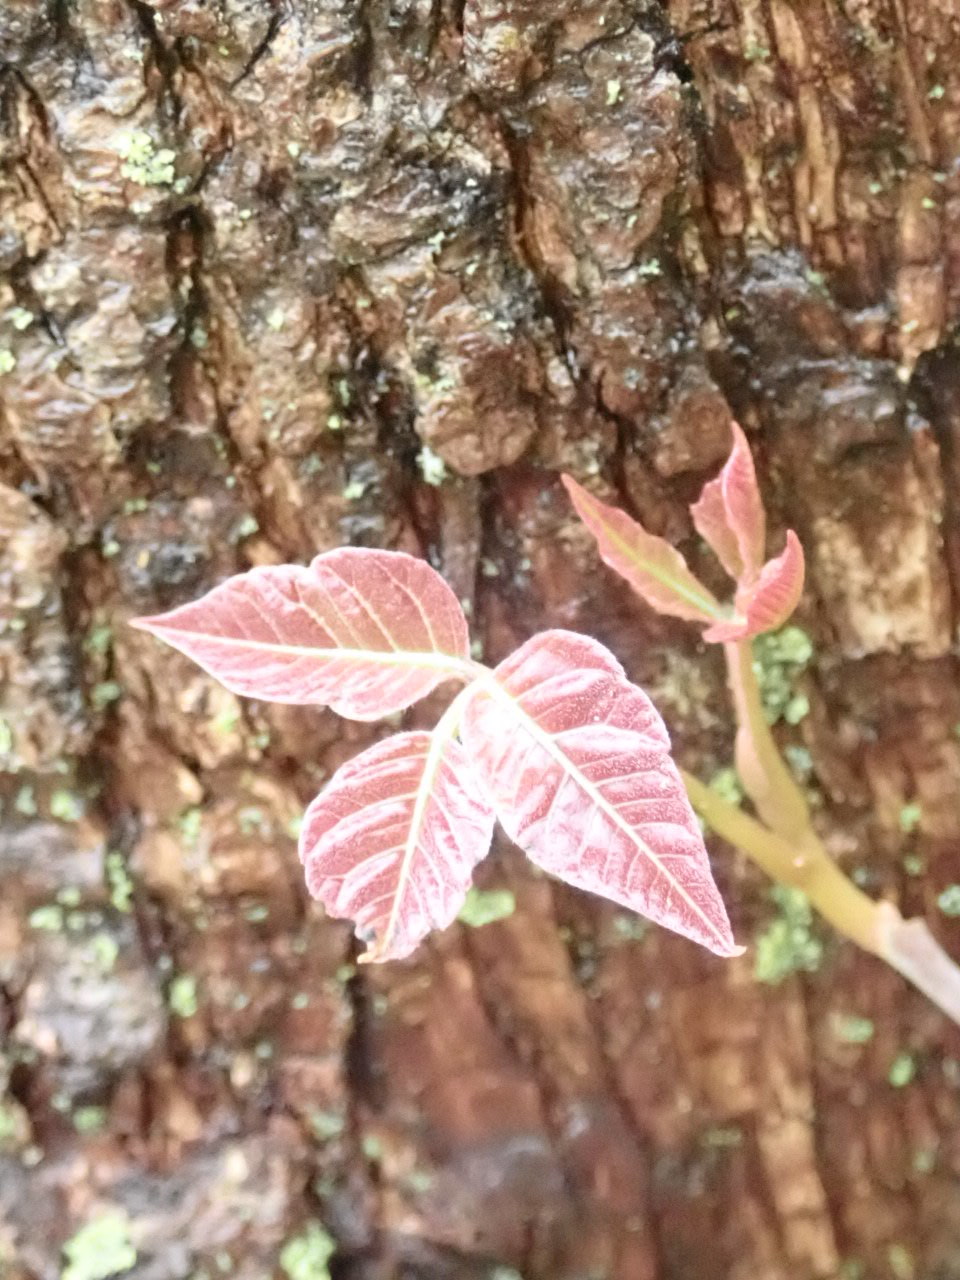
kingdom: Plantae
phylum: Tracheophyta
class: Magnoliopsida
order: Sapindales
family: Anacardiaceae
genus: Toxicodendron
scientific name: Toxicodendron radicans
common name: Poison ivy
